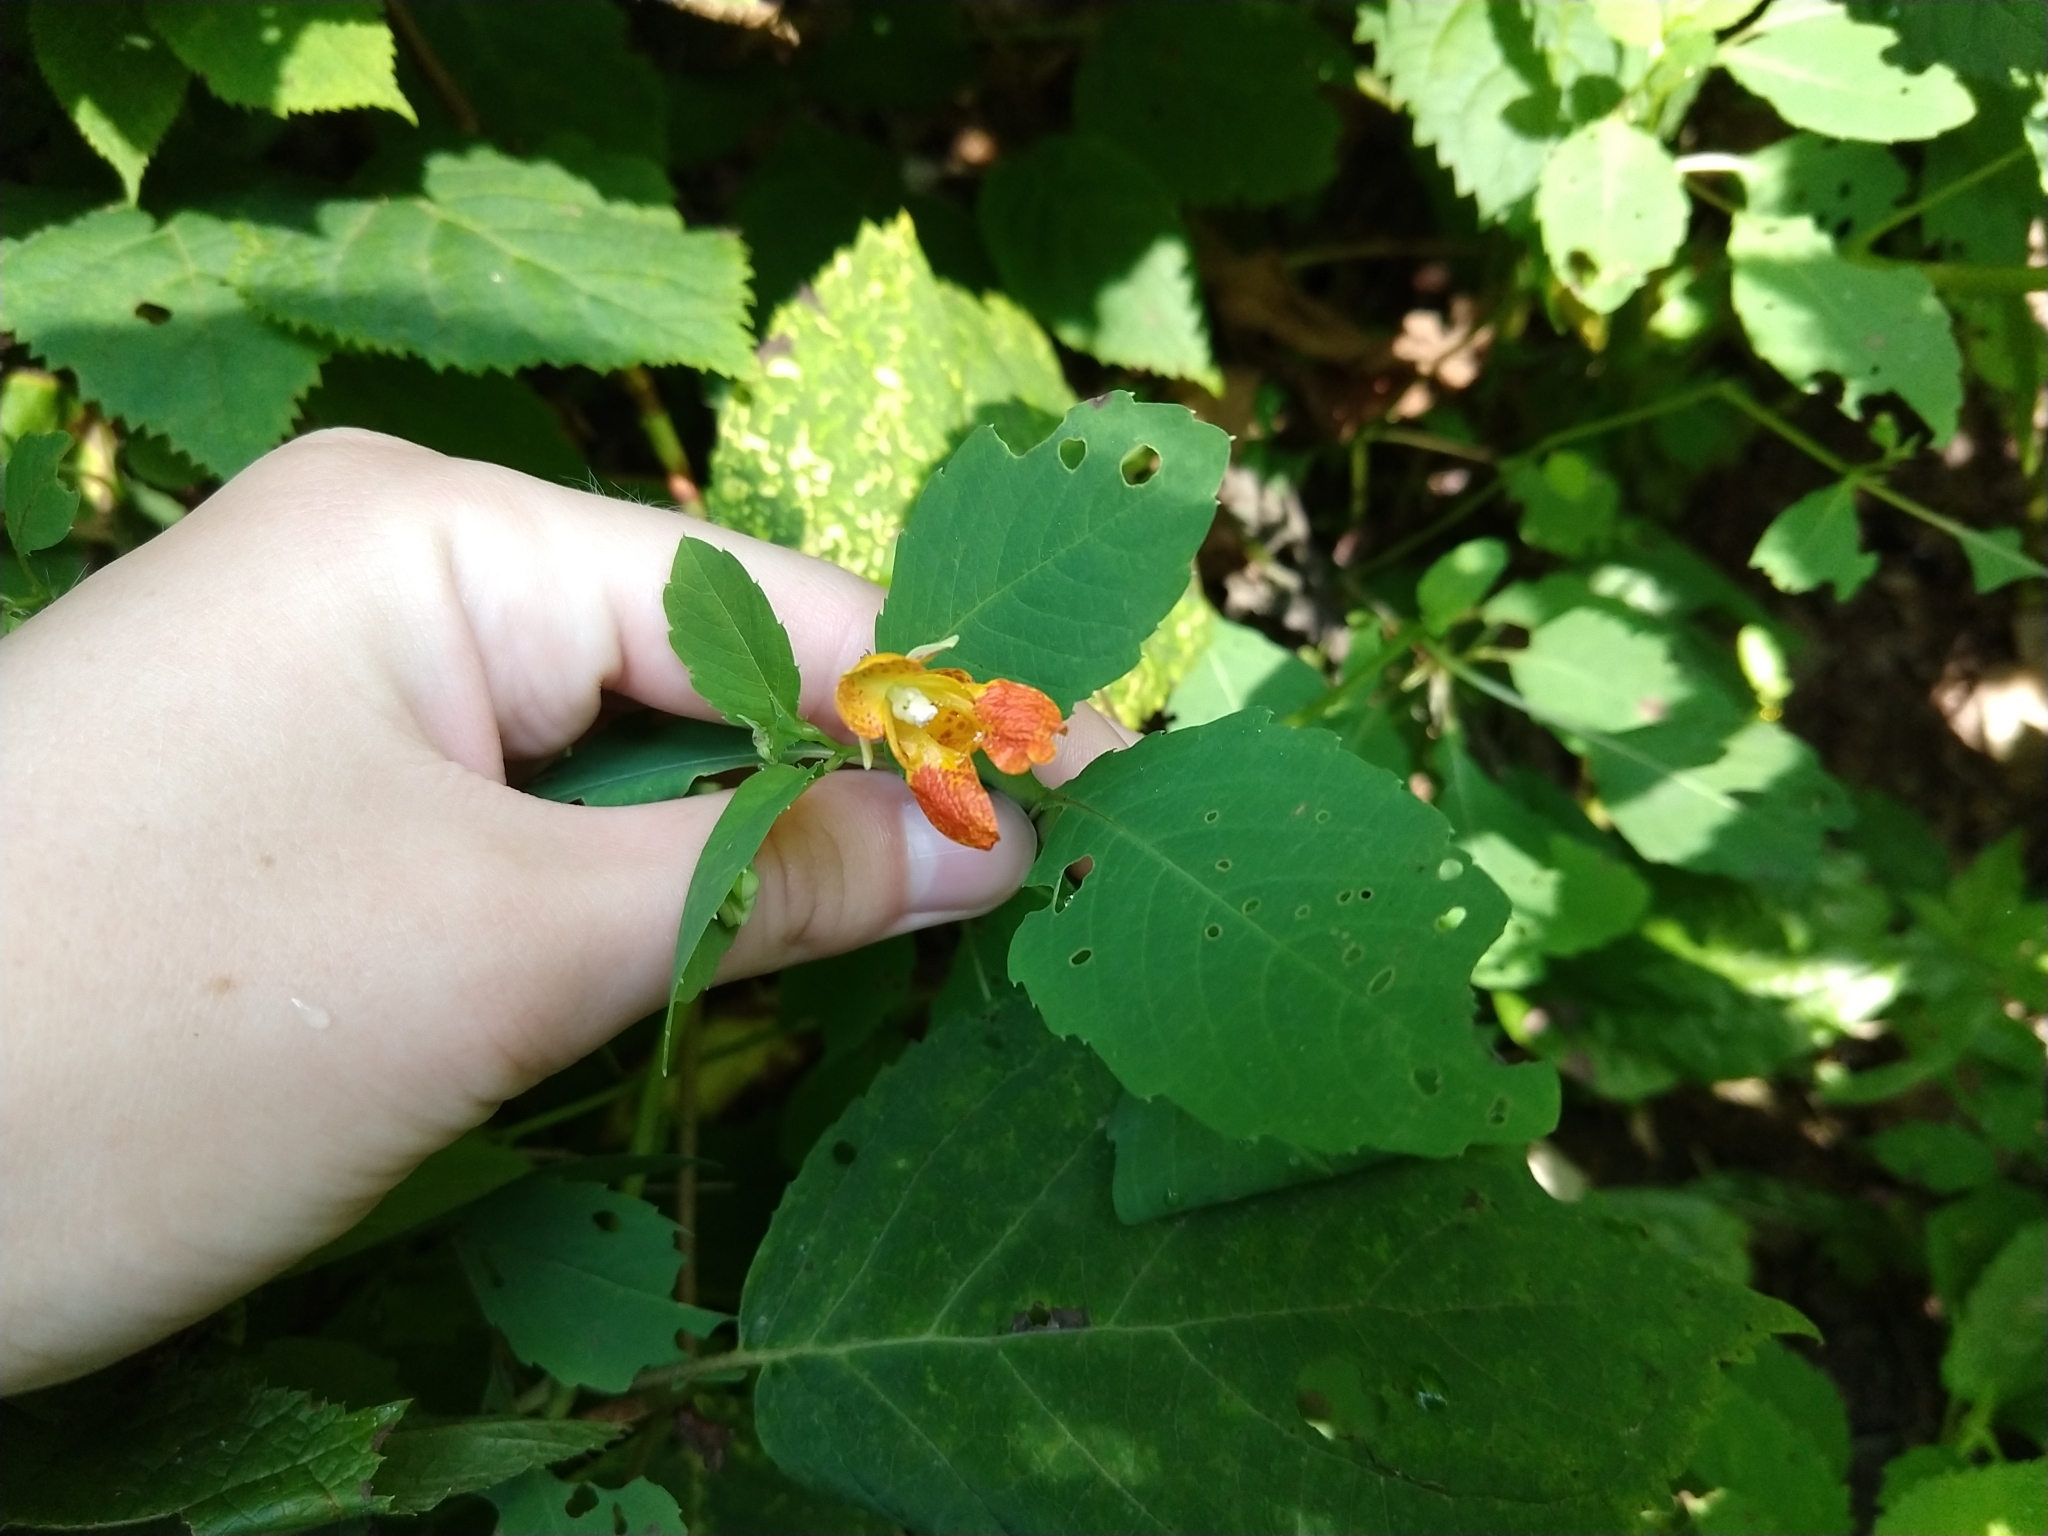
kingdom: Plantae
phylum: Tracheophyta
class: Magnoliopsida
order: Ericales
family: Balsaminaceae
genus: Impatiens
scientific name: Impatiens capensis
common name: Orange balsam
